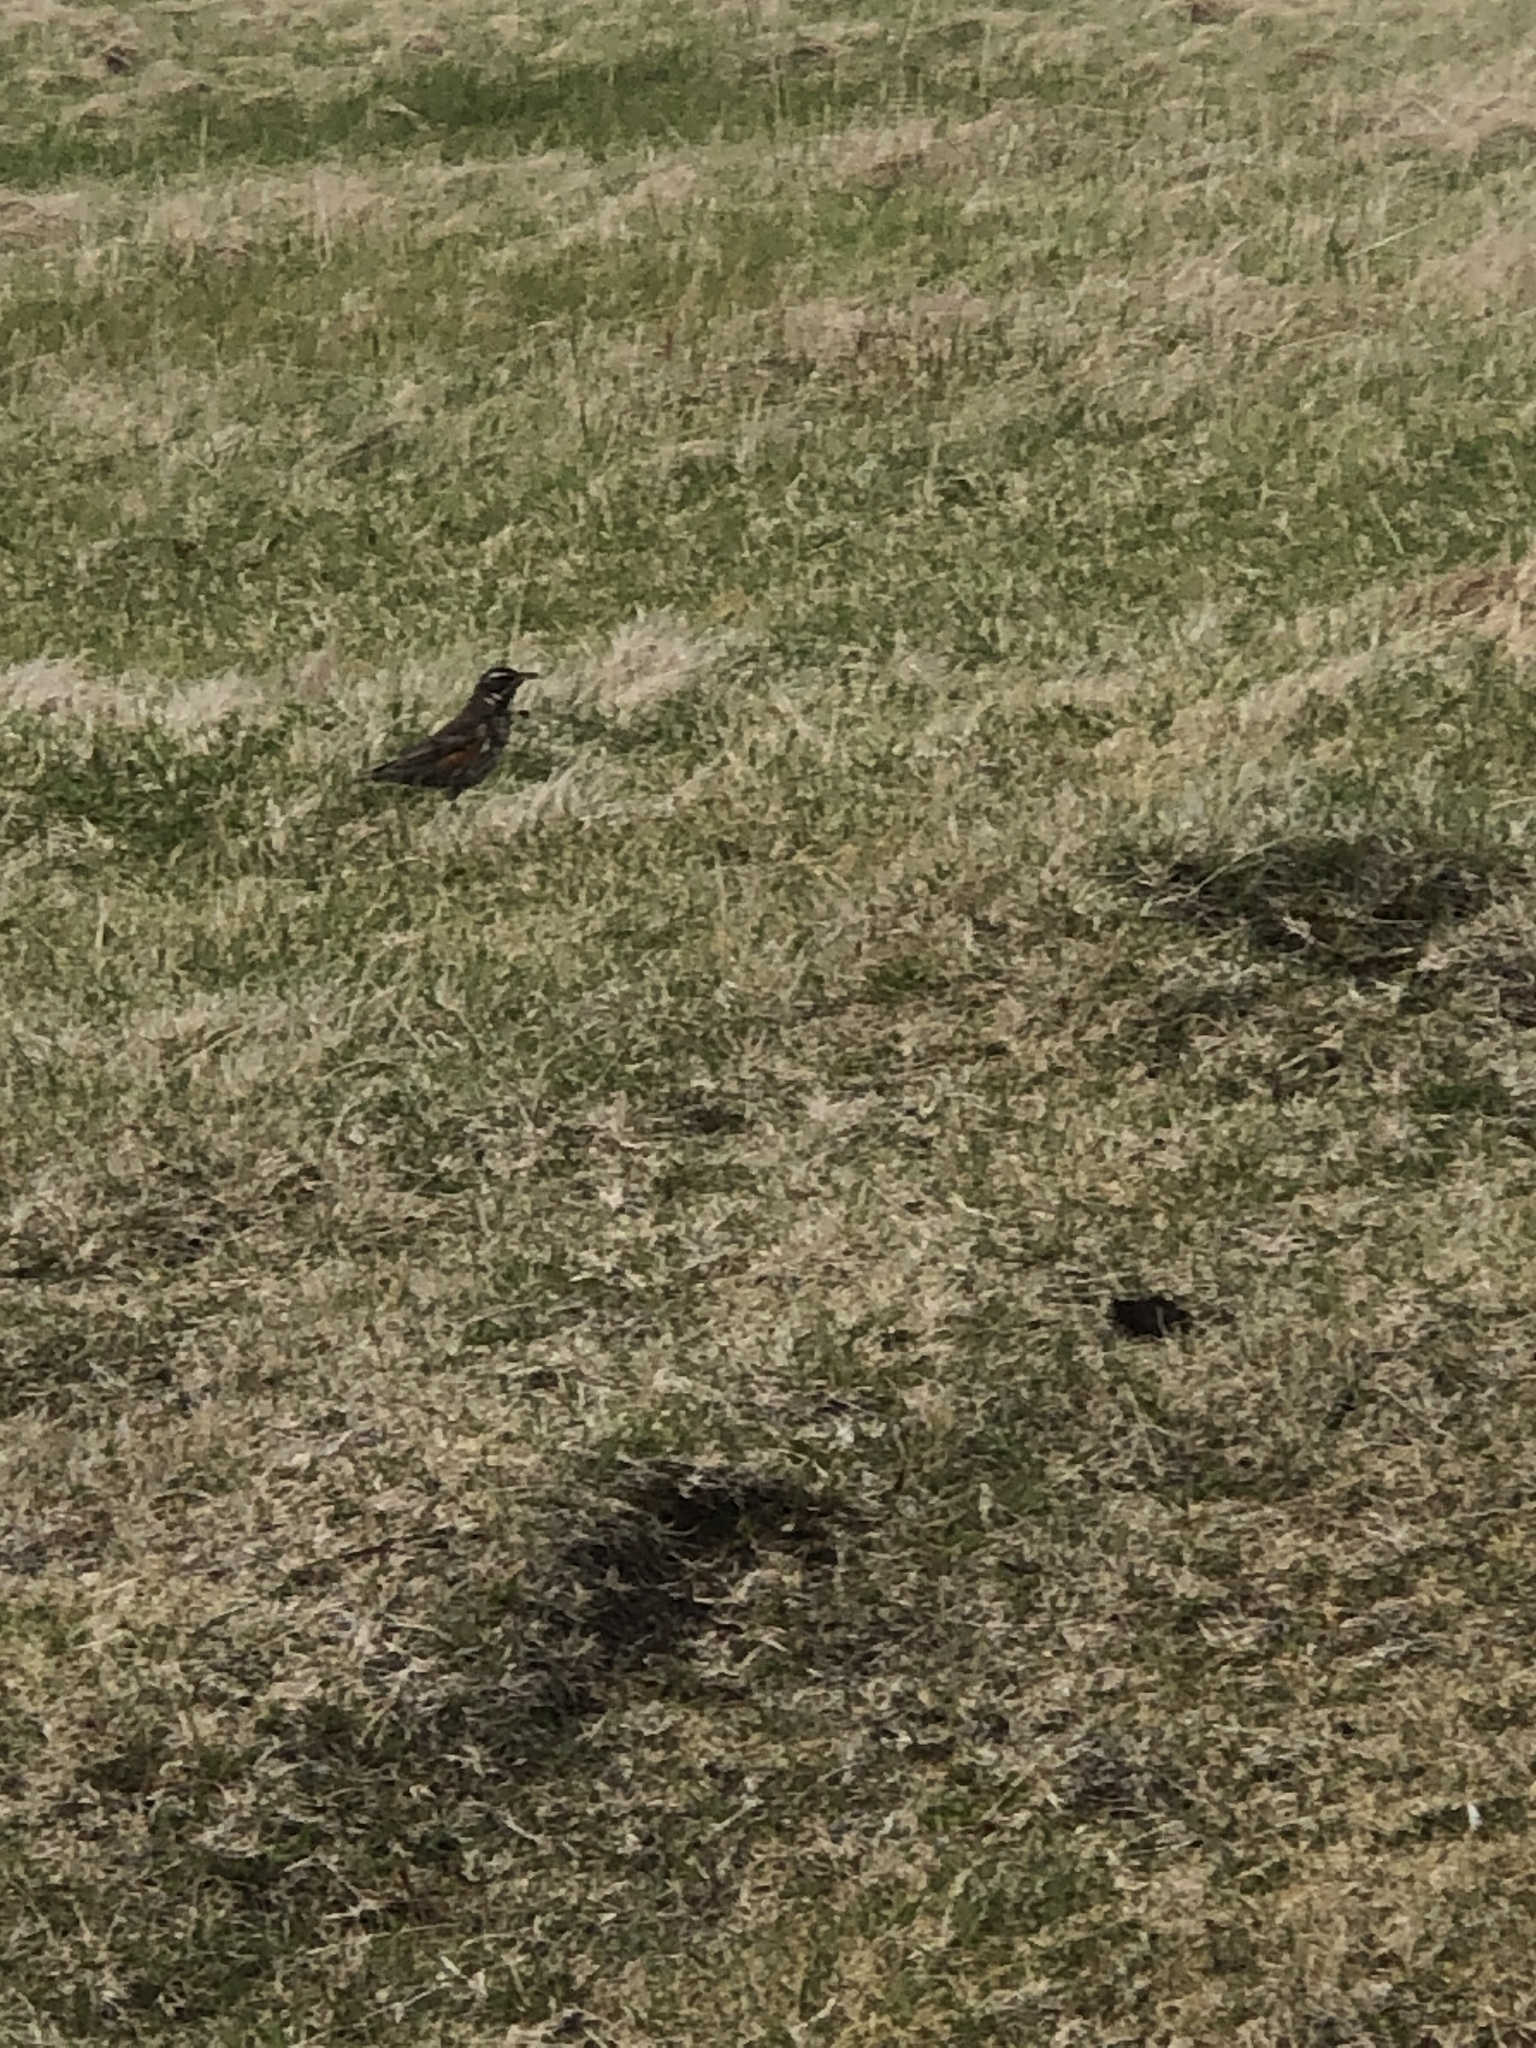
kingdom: Animalia
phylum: Chordata
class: Aves
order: Passeriformes
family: Turdidae
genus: Turdus
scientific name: Turdus iliacus
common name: Redwing
